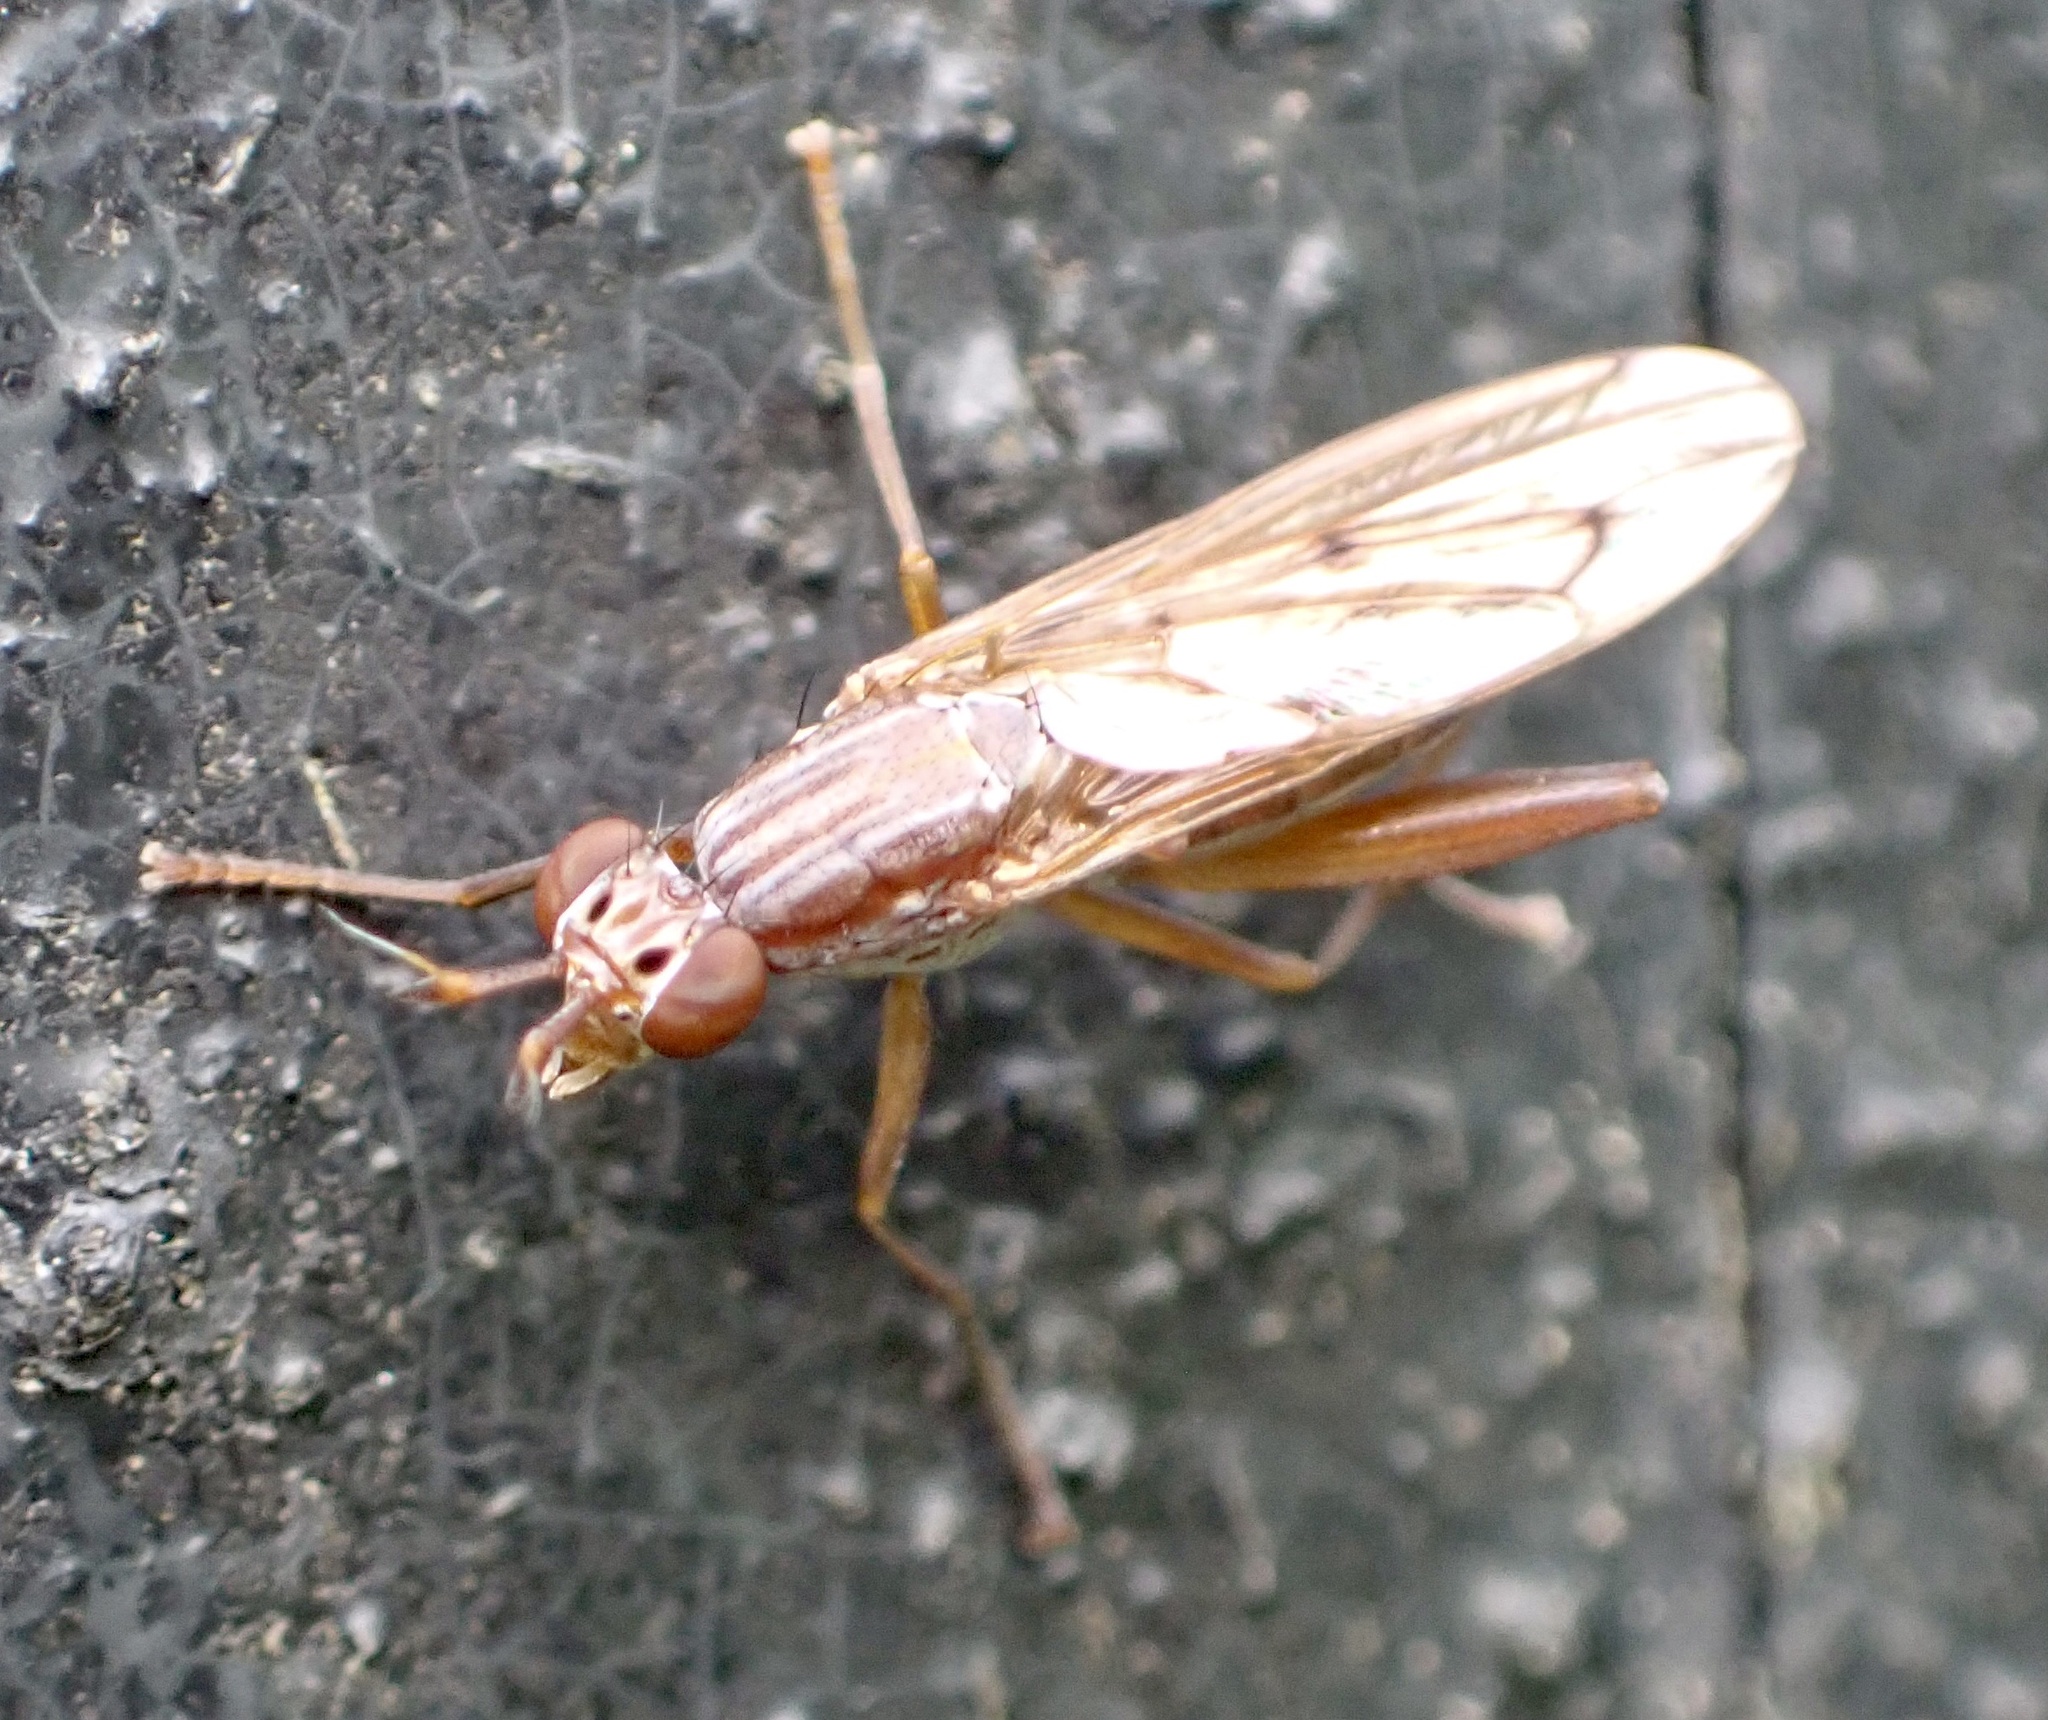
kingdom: Animalia
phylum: Arthropoda
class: Insecta
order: Diptera
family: Sciomyzidae
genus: Sepedon
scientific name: Sepedon spinipes
